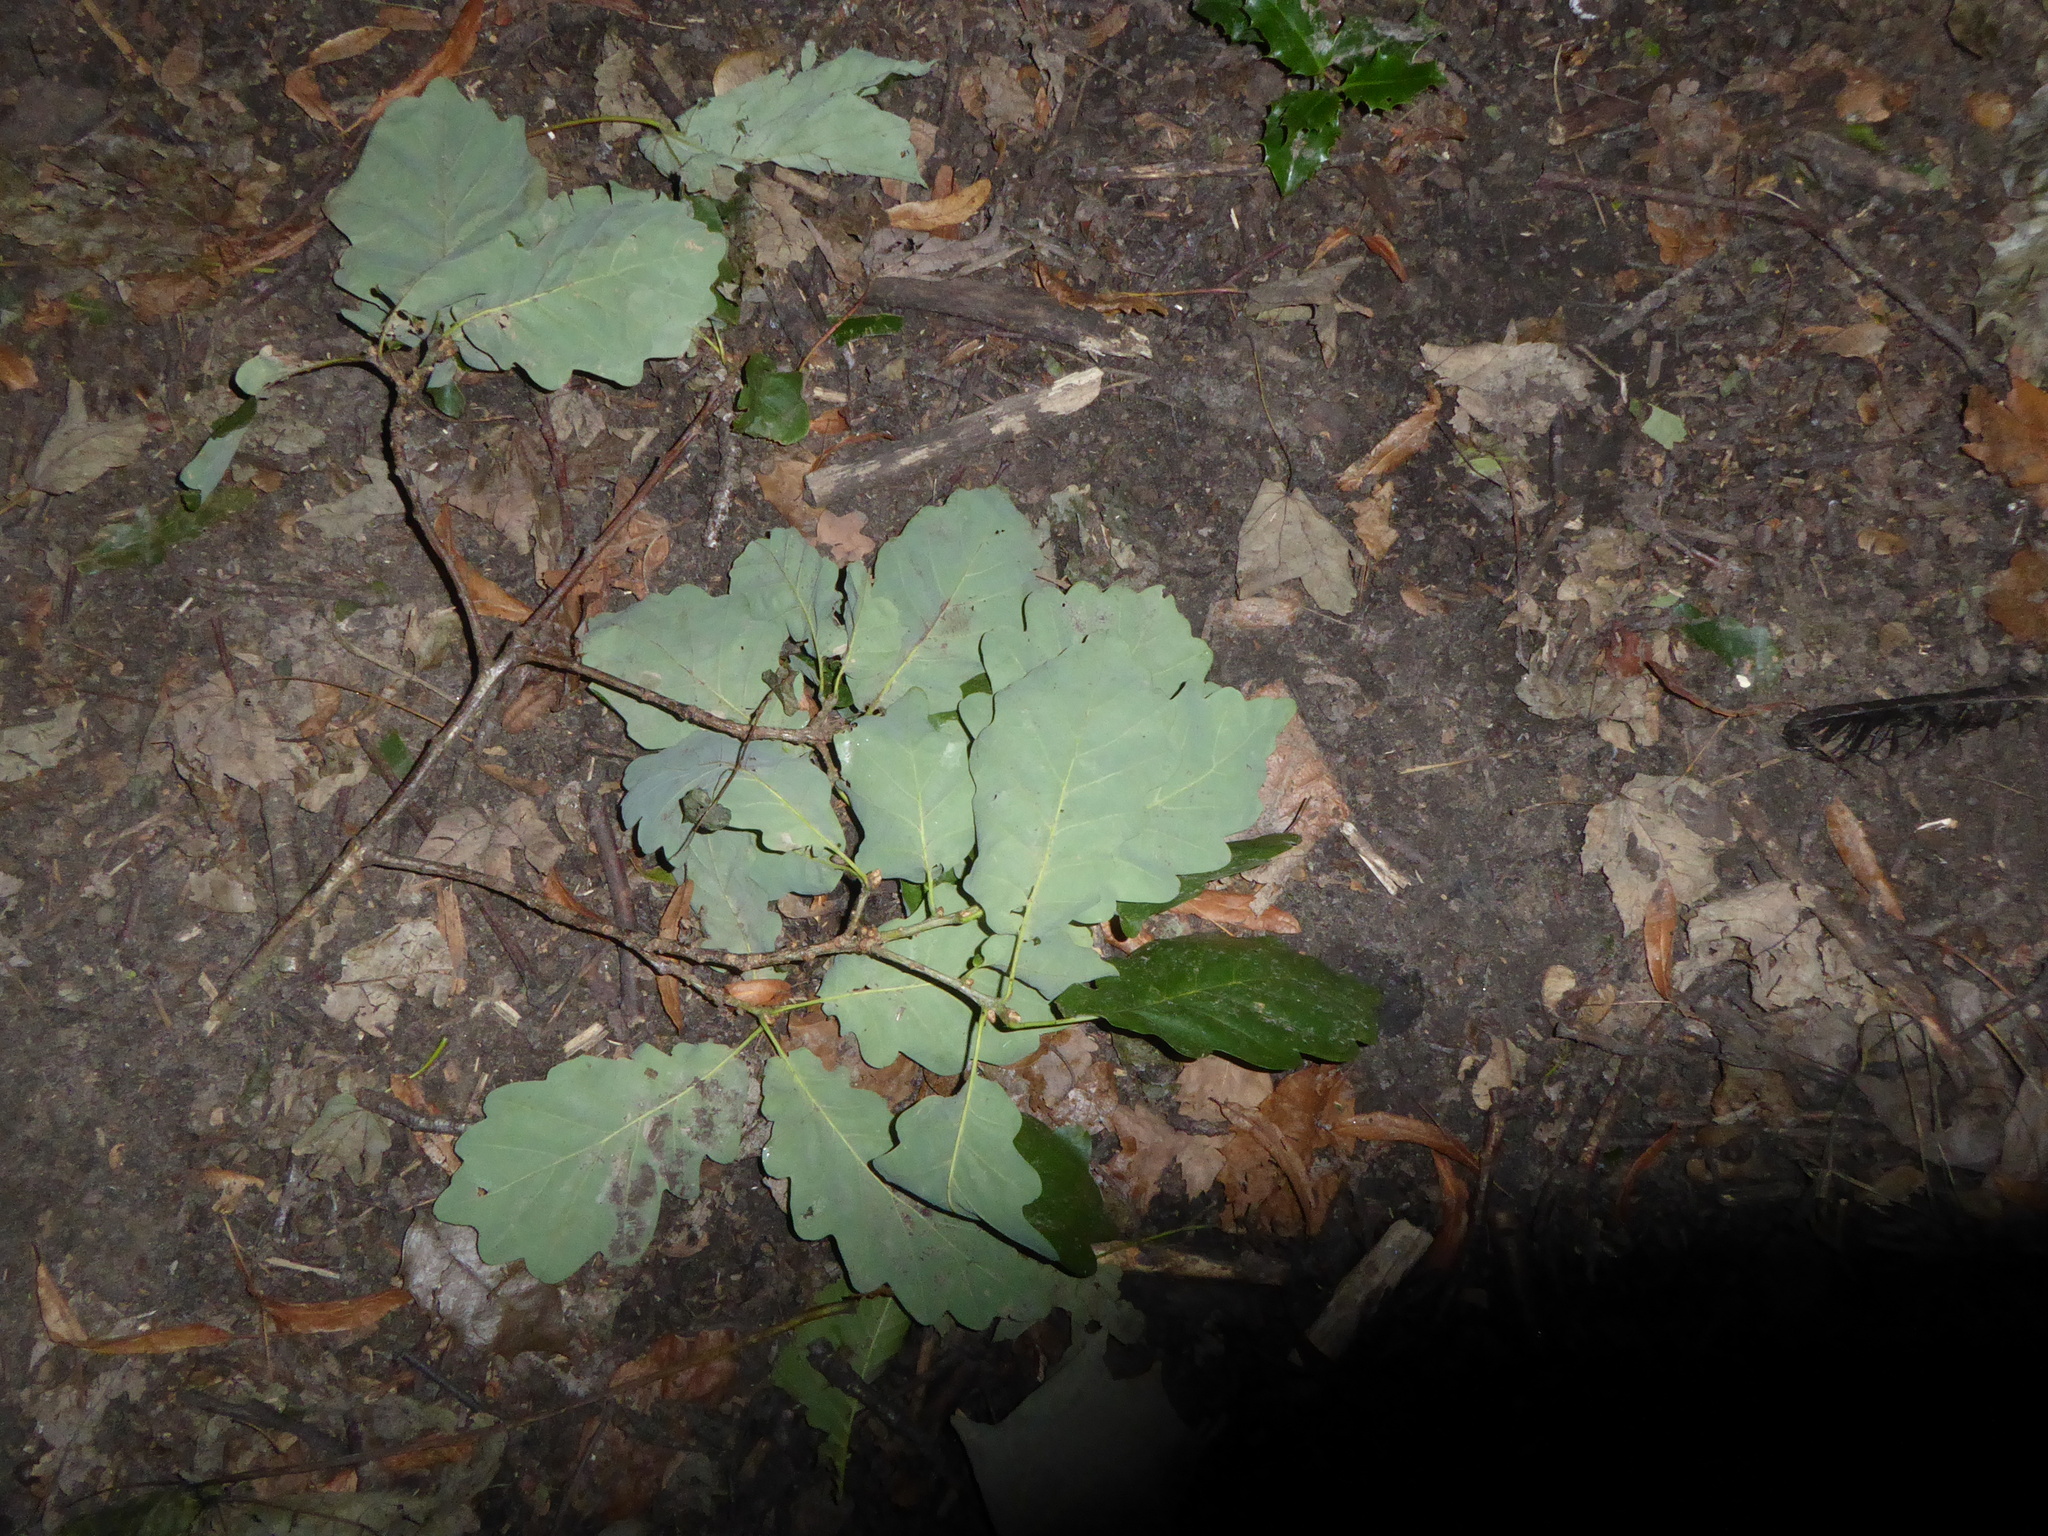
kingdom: Plantae
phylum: Tracheophyta
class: Magnoliopsida
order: Fagales
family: Fagaceae
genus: Quercus
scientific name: Quercus petraea
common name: Sessile oak
